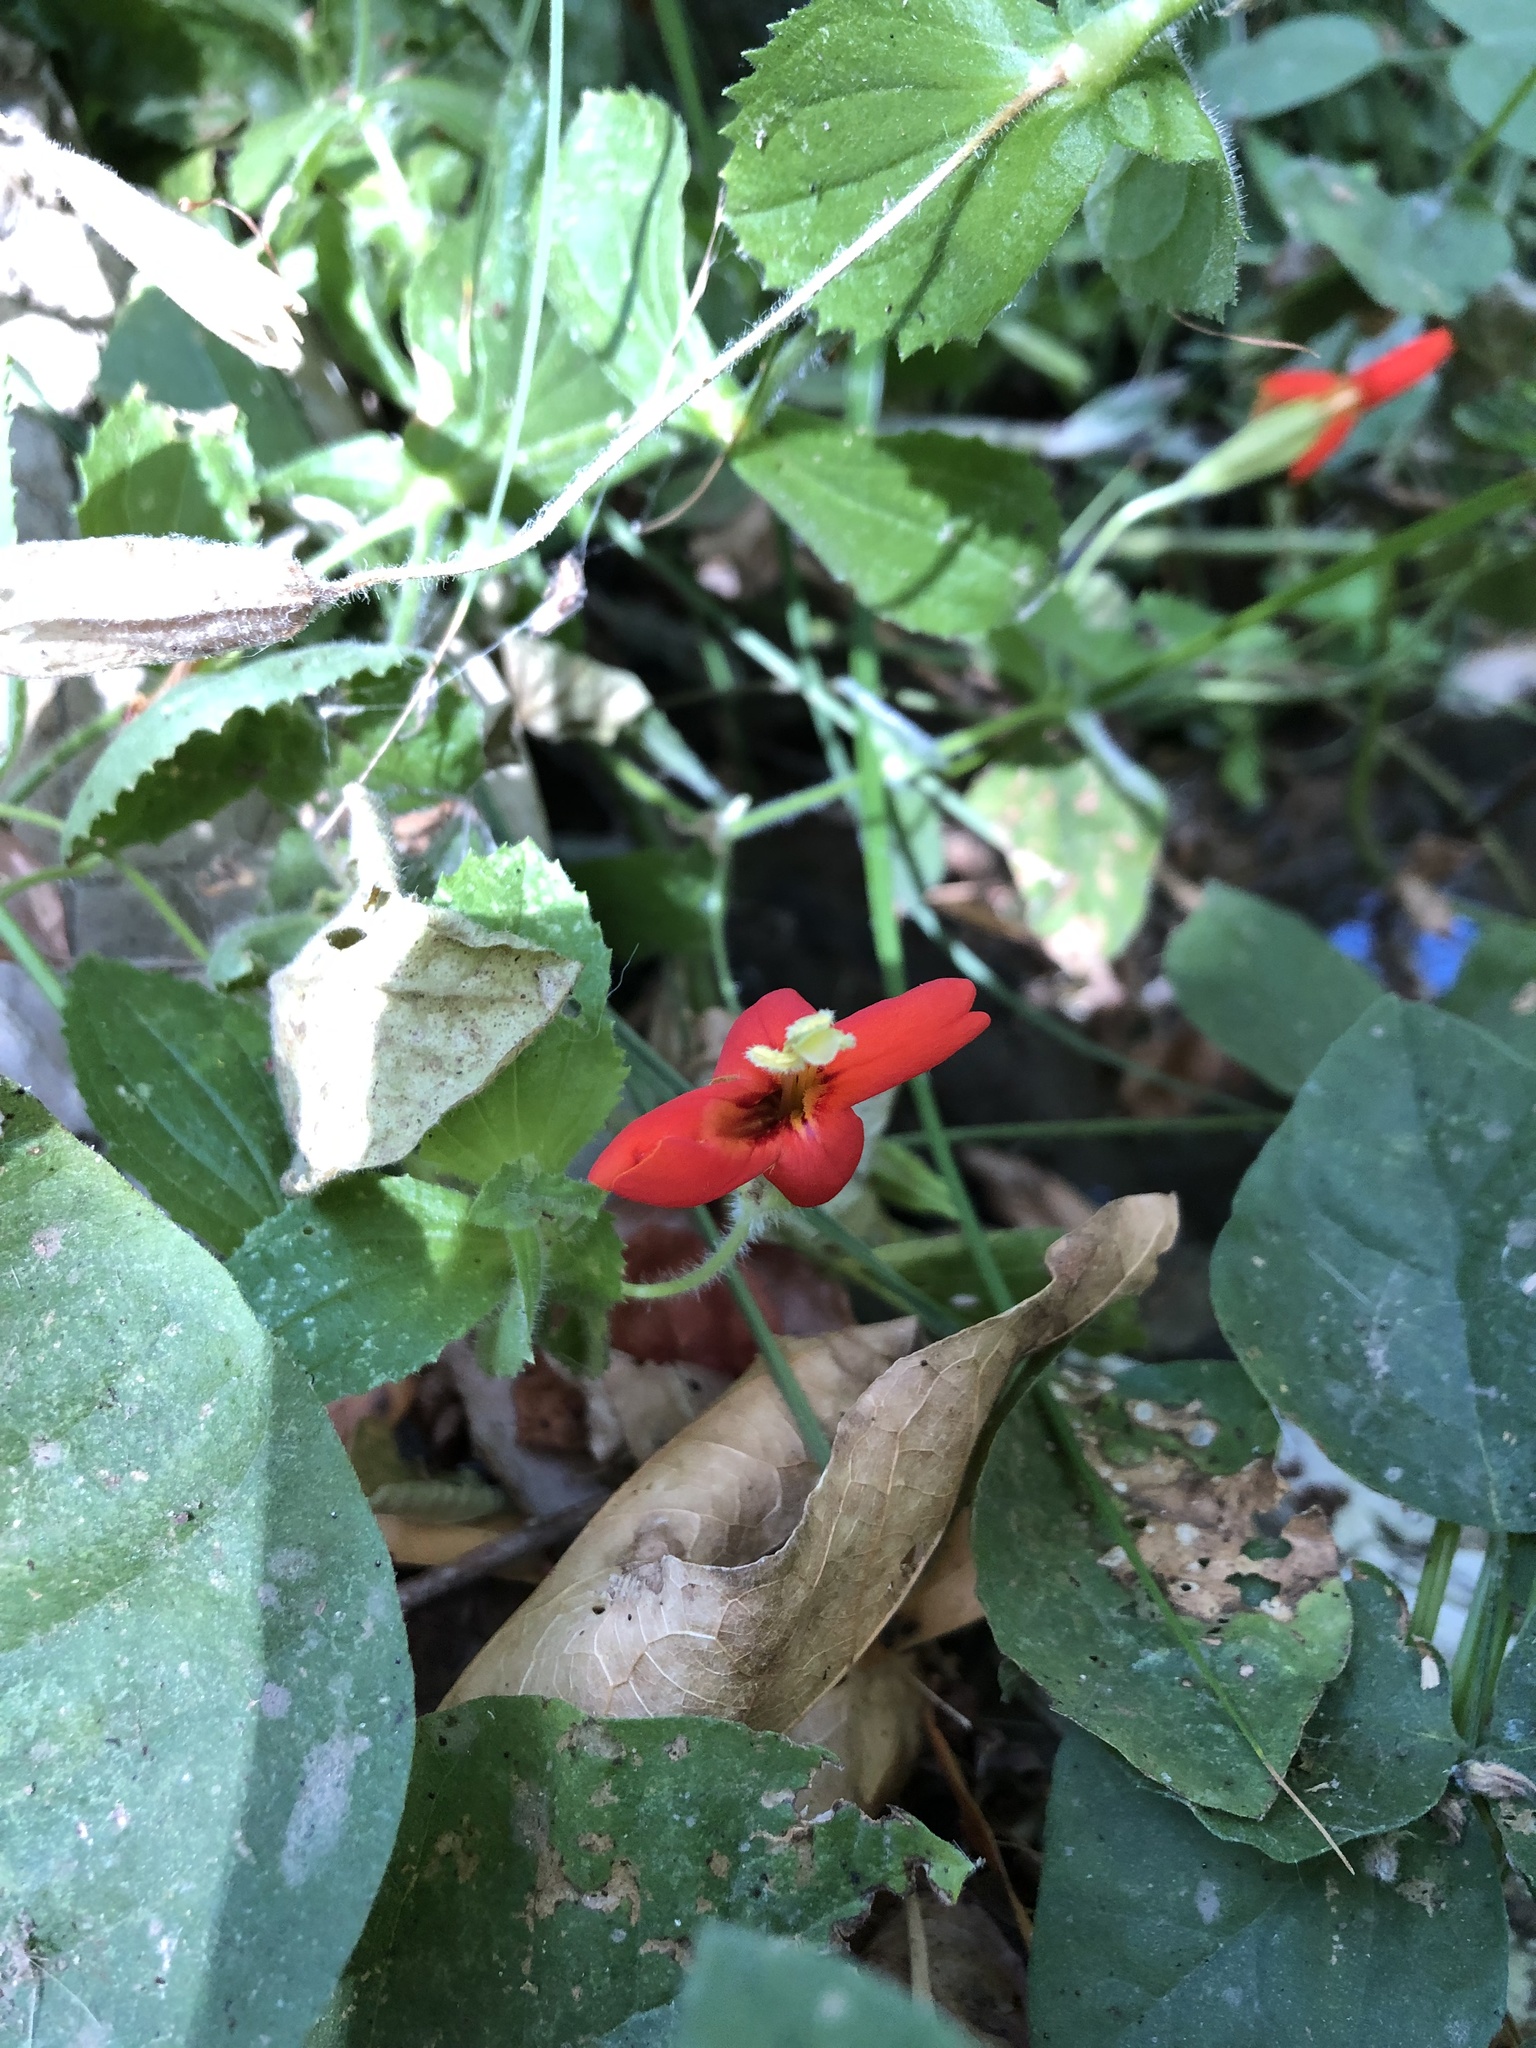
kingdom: Plantae
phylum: Tracheophyta
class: Magnoliopsida
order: Lamiales
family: Phrymaceae
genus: Erythranthe
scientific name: Erythranthe cardinalis
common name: Scarlet monkey-flower
